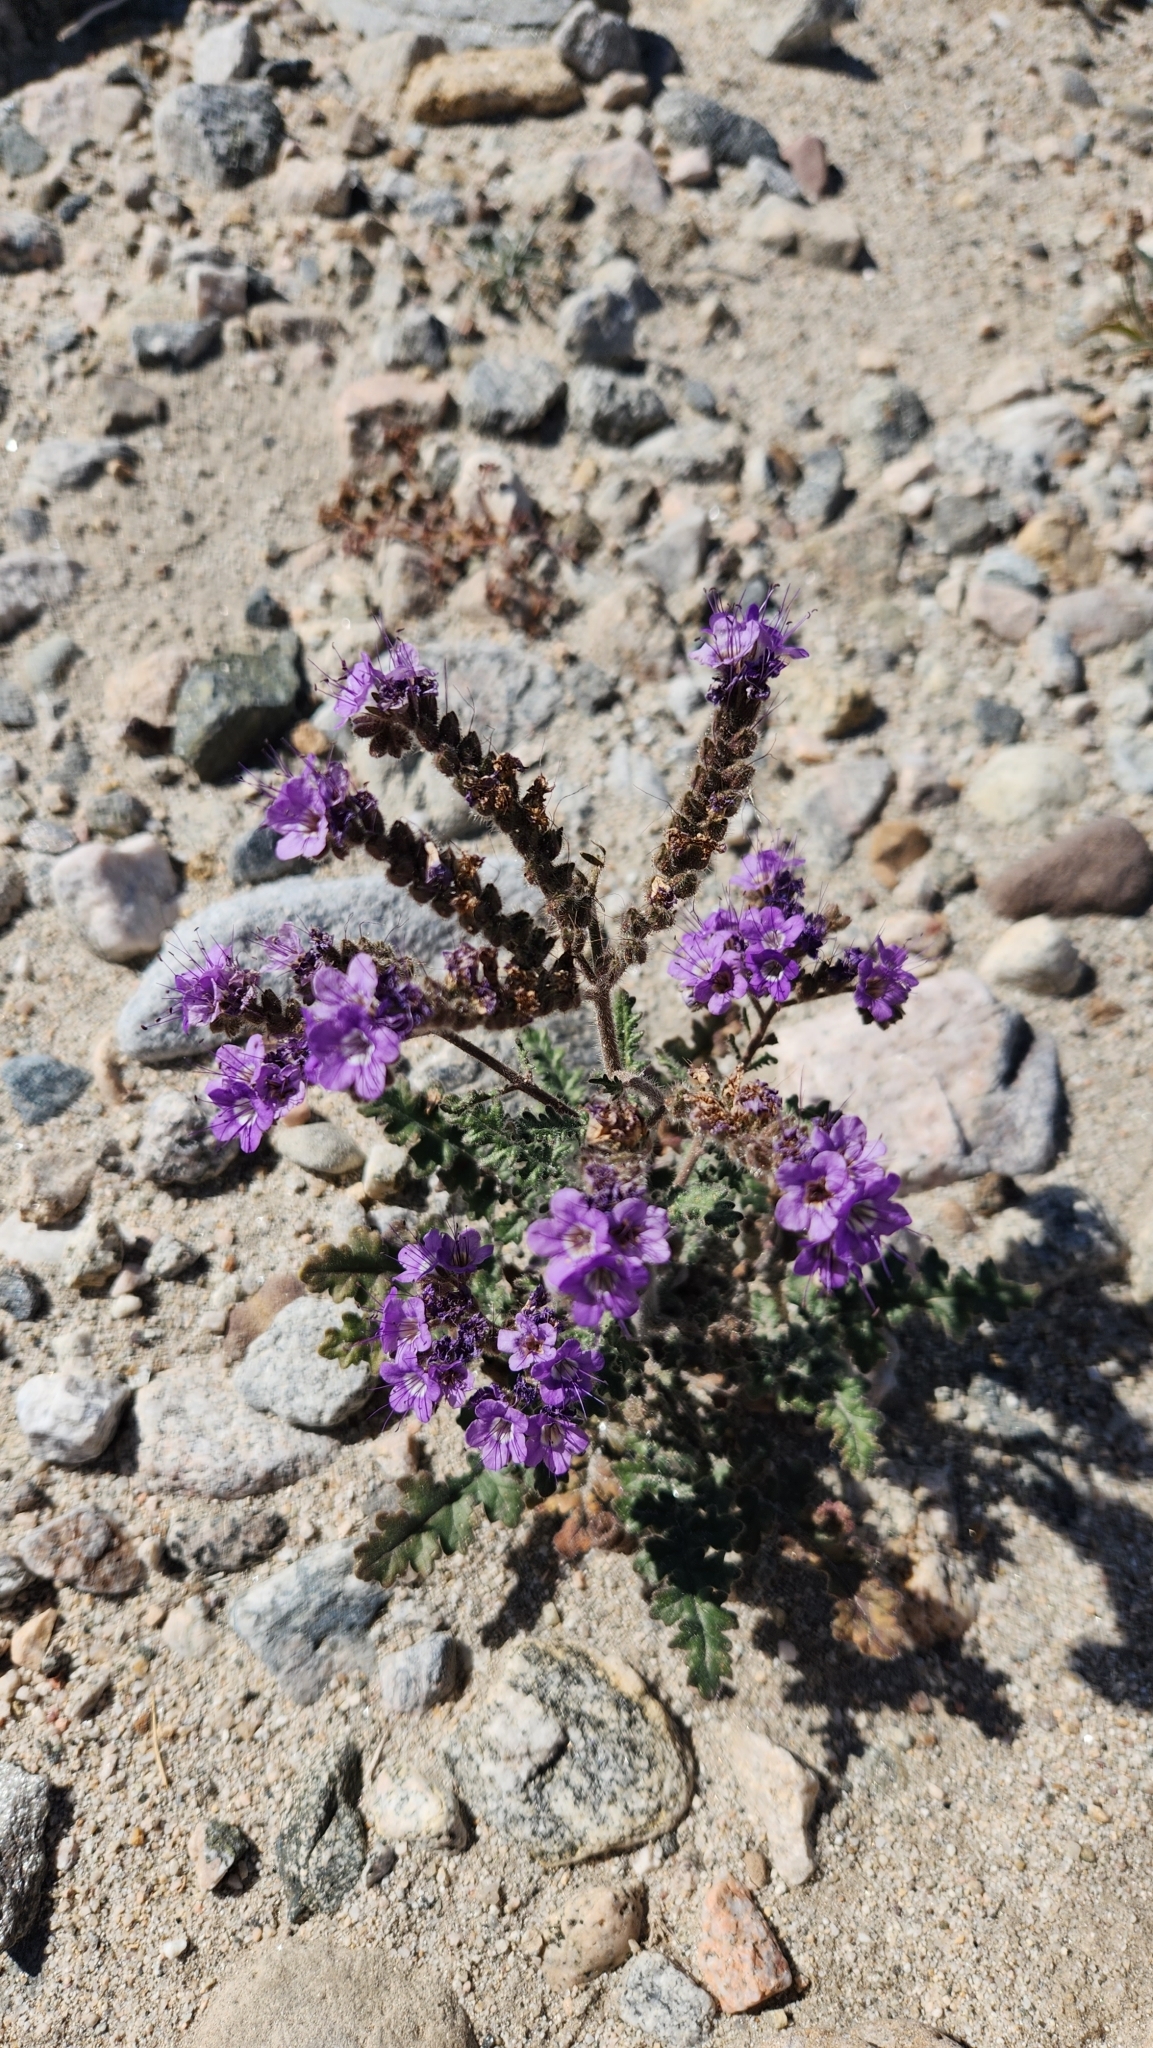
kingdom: Plantae
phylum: Tracheophyta
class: Magnoliopsida
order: Boraginales
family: Hydrophyllaceae
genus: Phacelia
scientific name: Phacelia crenulata
